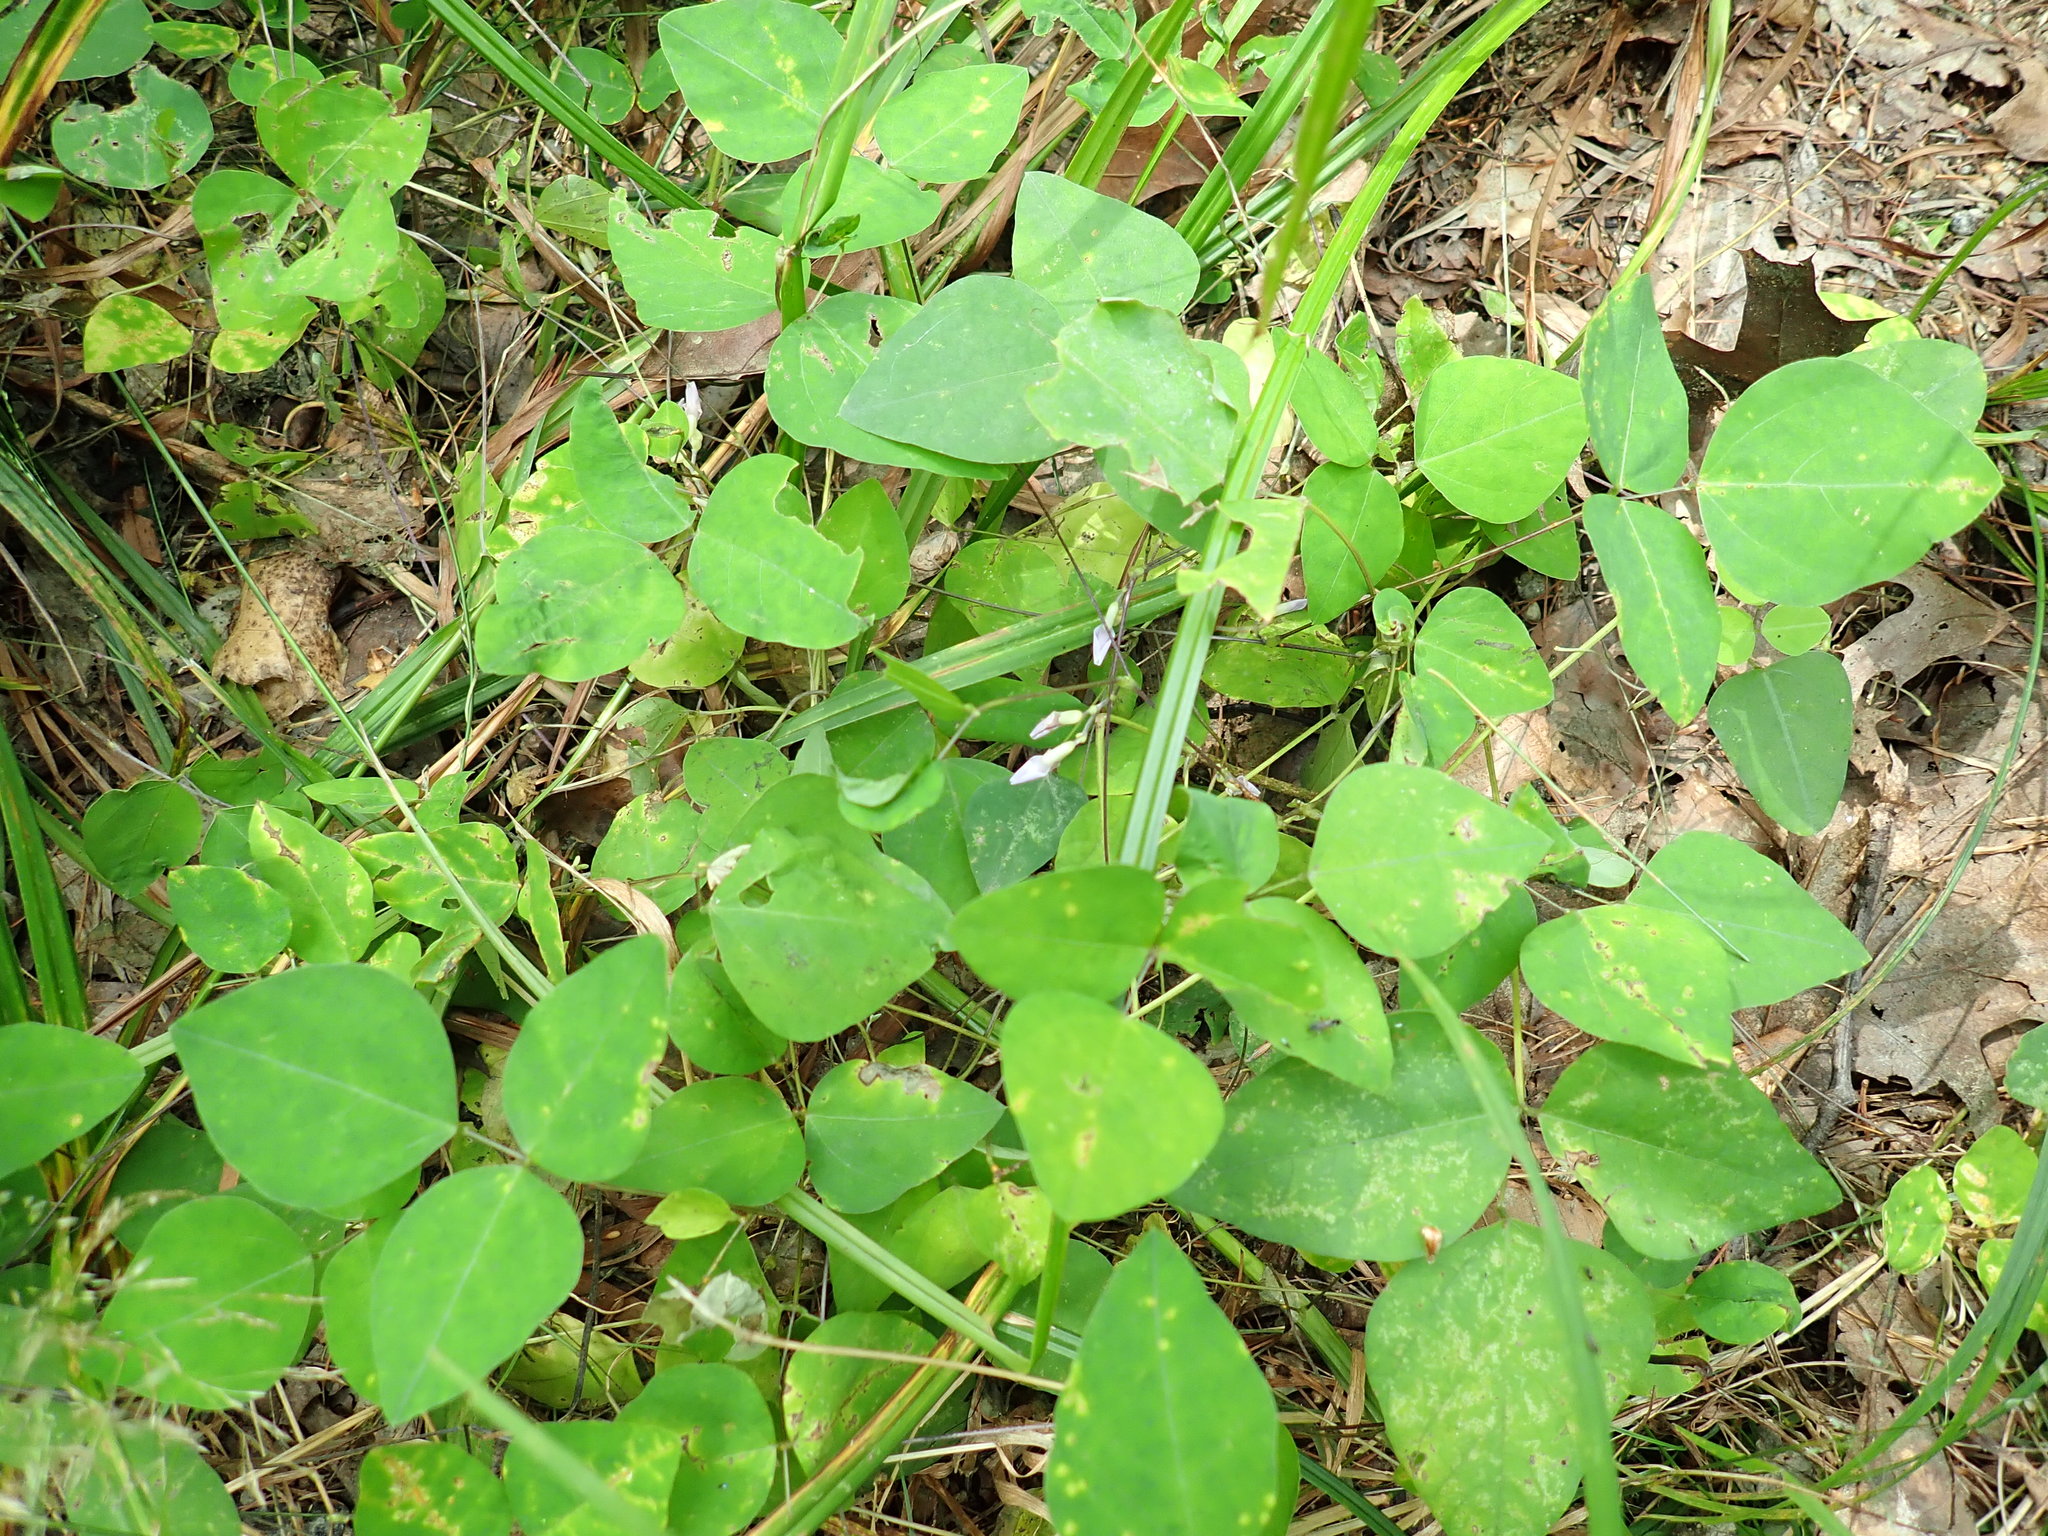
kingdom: Plantae
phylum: Tracheophyta
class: Magnoliopsida
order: Fabales
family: Fabaceae
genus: Amphicarpaea
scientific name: Amphicarpaea bracteata
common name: American hog peanut
